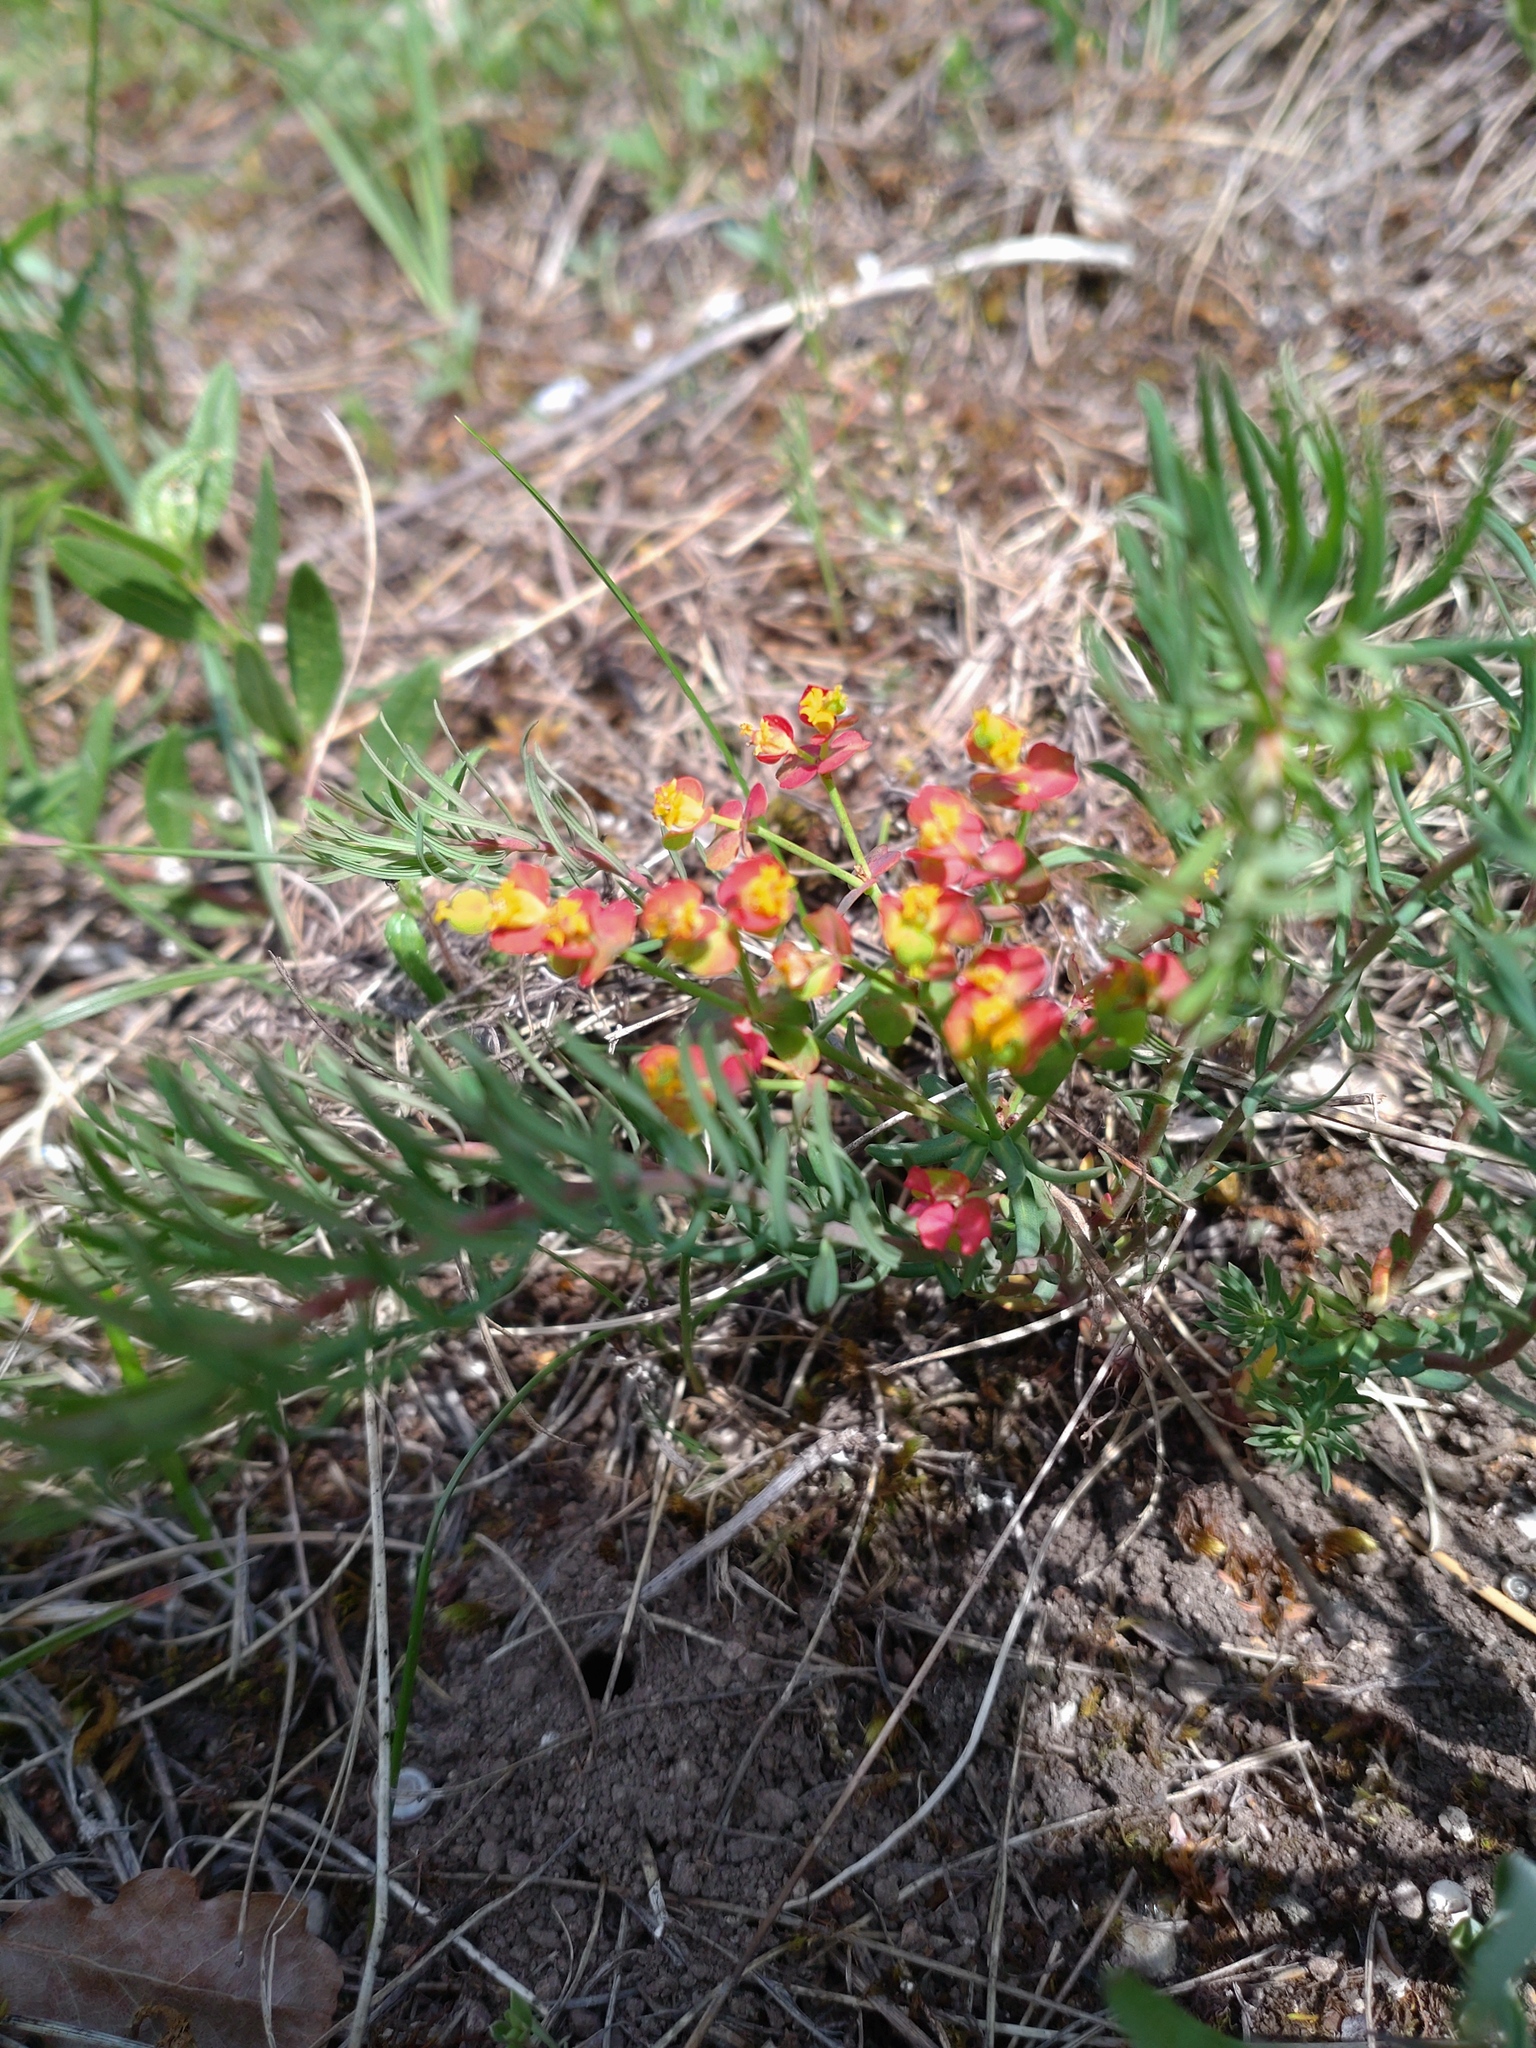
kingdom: Plantae
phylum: Tracheophyta
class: Magnoliopsida
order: Malpighiales
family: Euphorbiaceae
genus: Euphorbia
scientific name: Euphorbia cyparissias
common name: Cypress spurge
